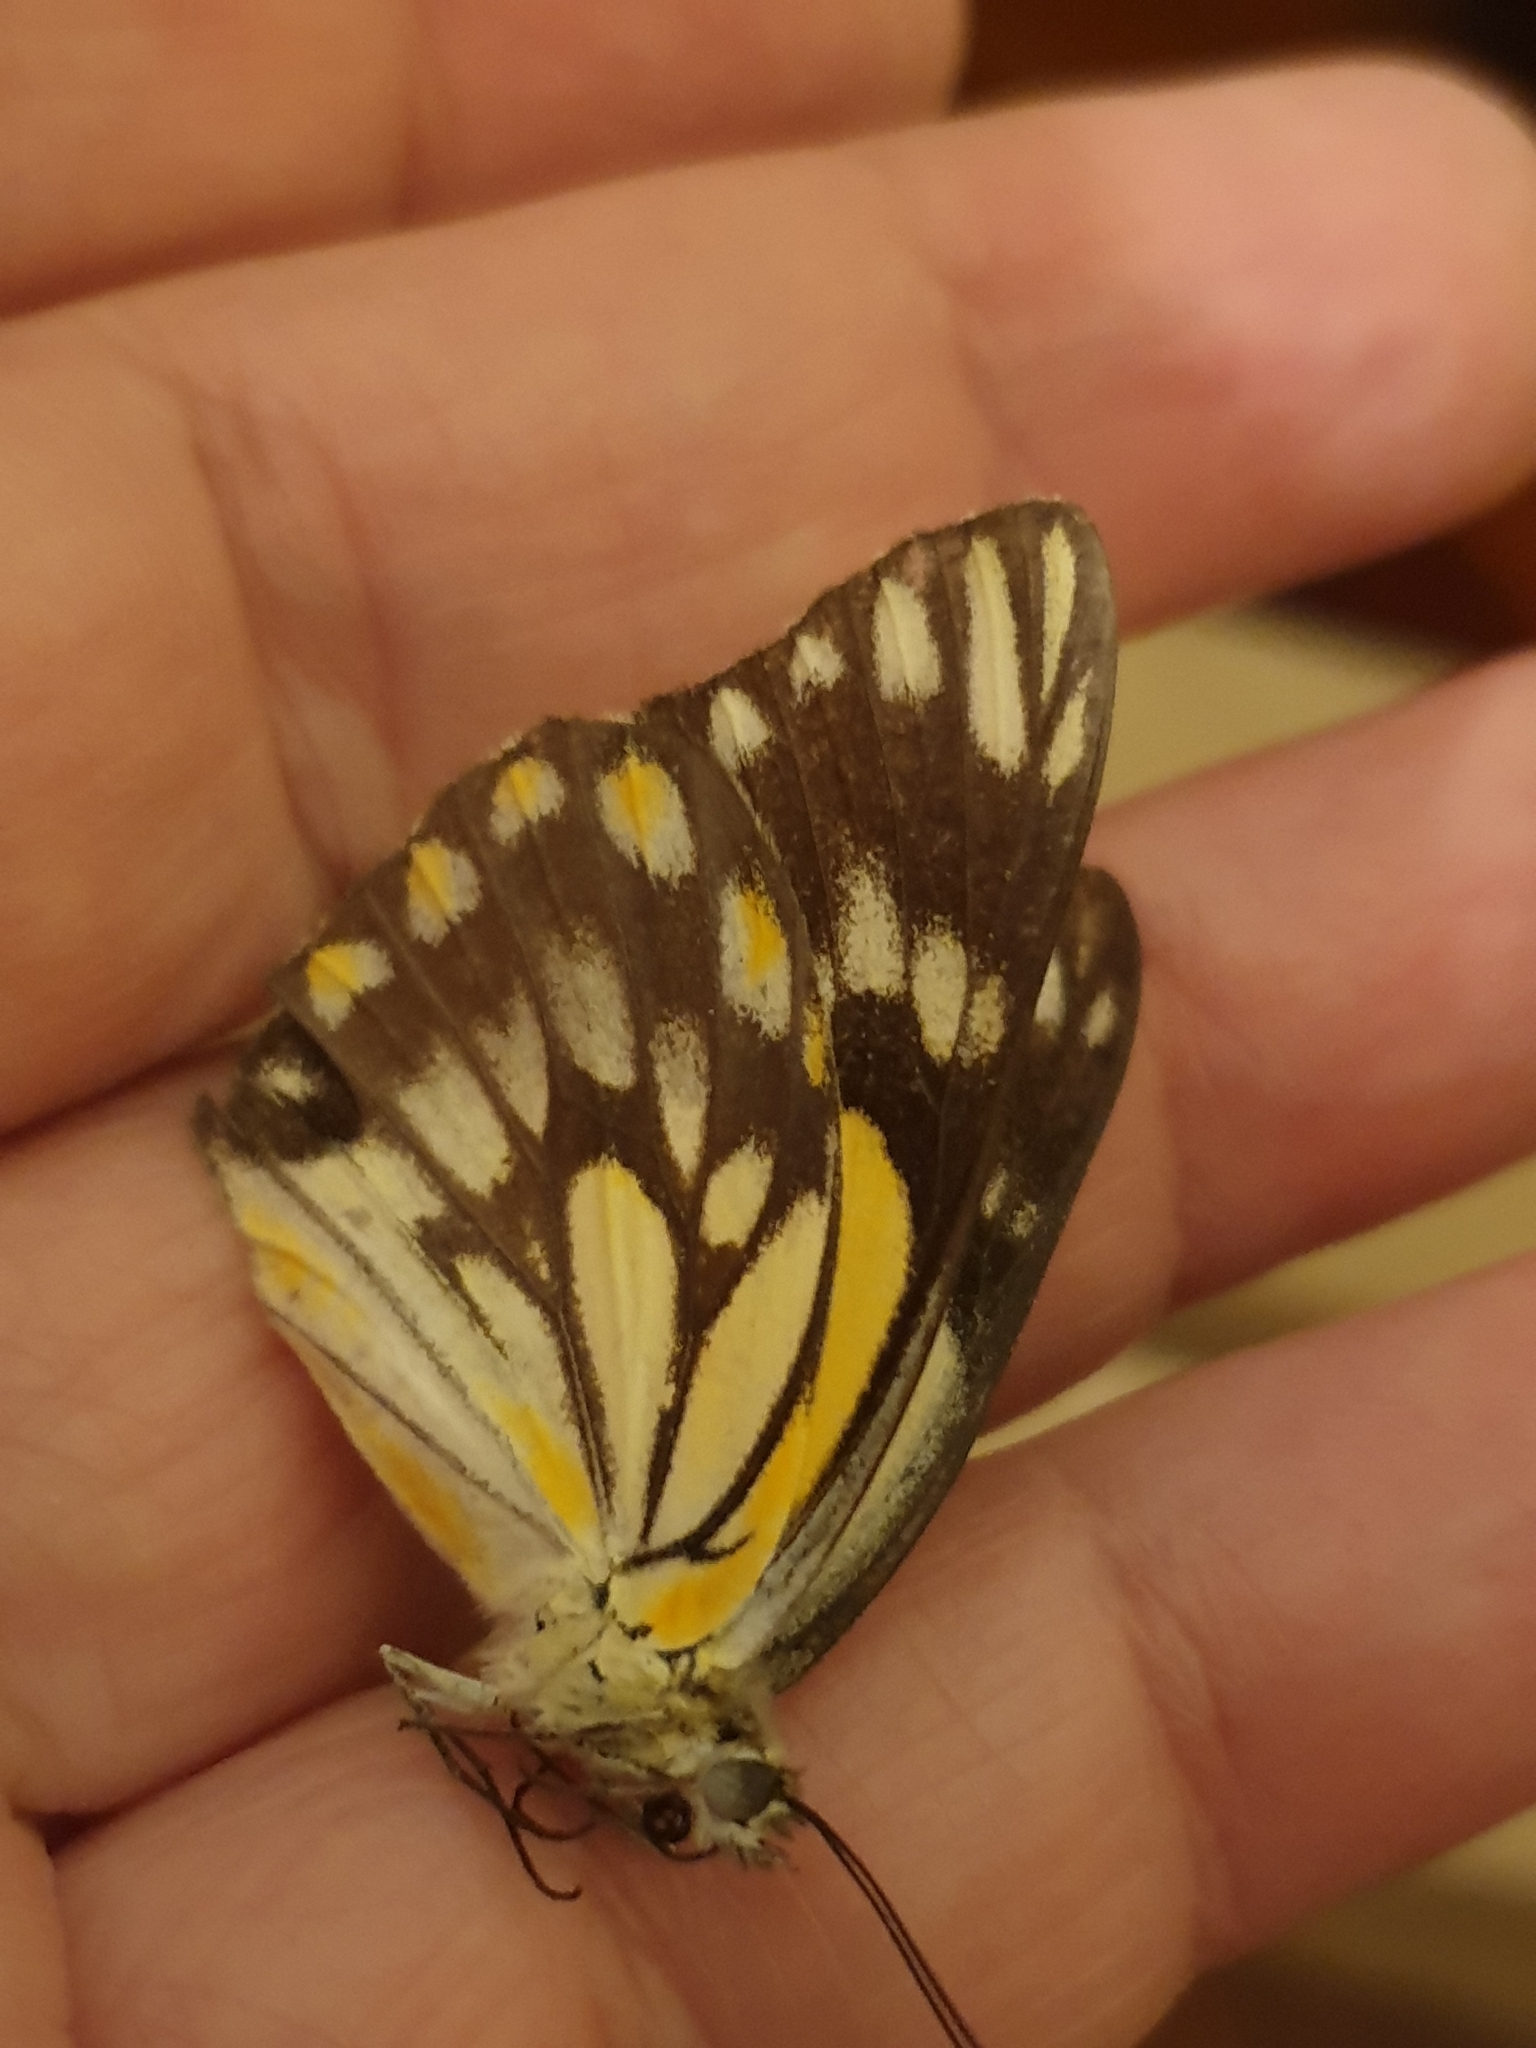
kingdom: Animalia
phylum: Arthropoda
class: Insecta
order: Lepidoptera
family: Pieridae
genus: Belenois
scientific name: Belenois java
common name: Caper white
